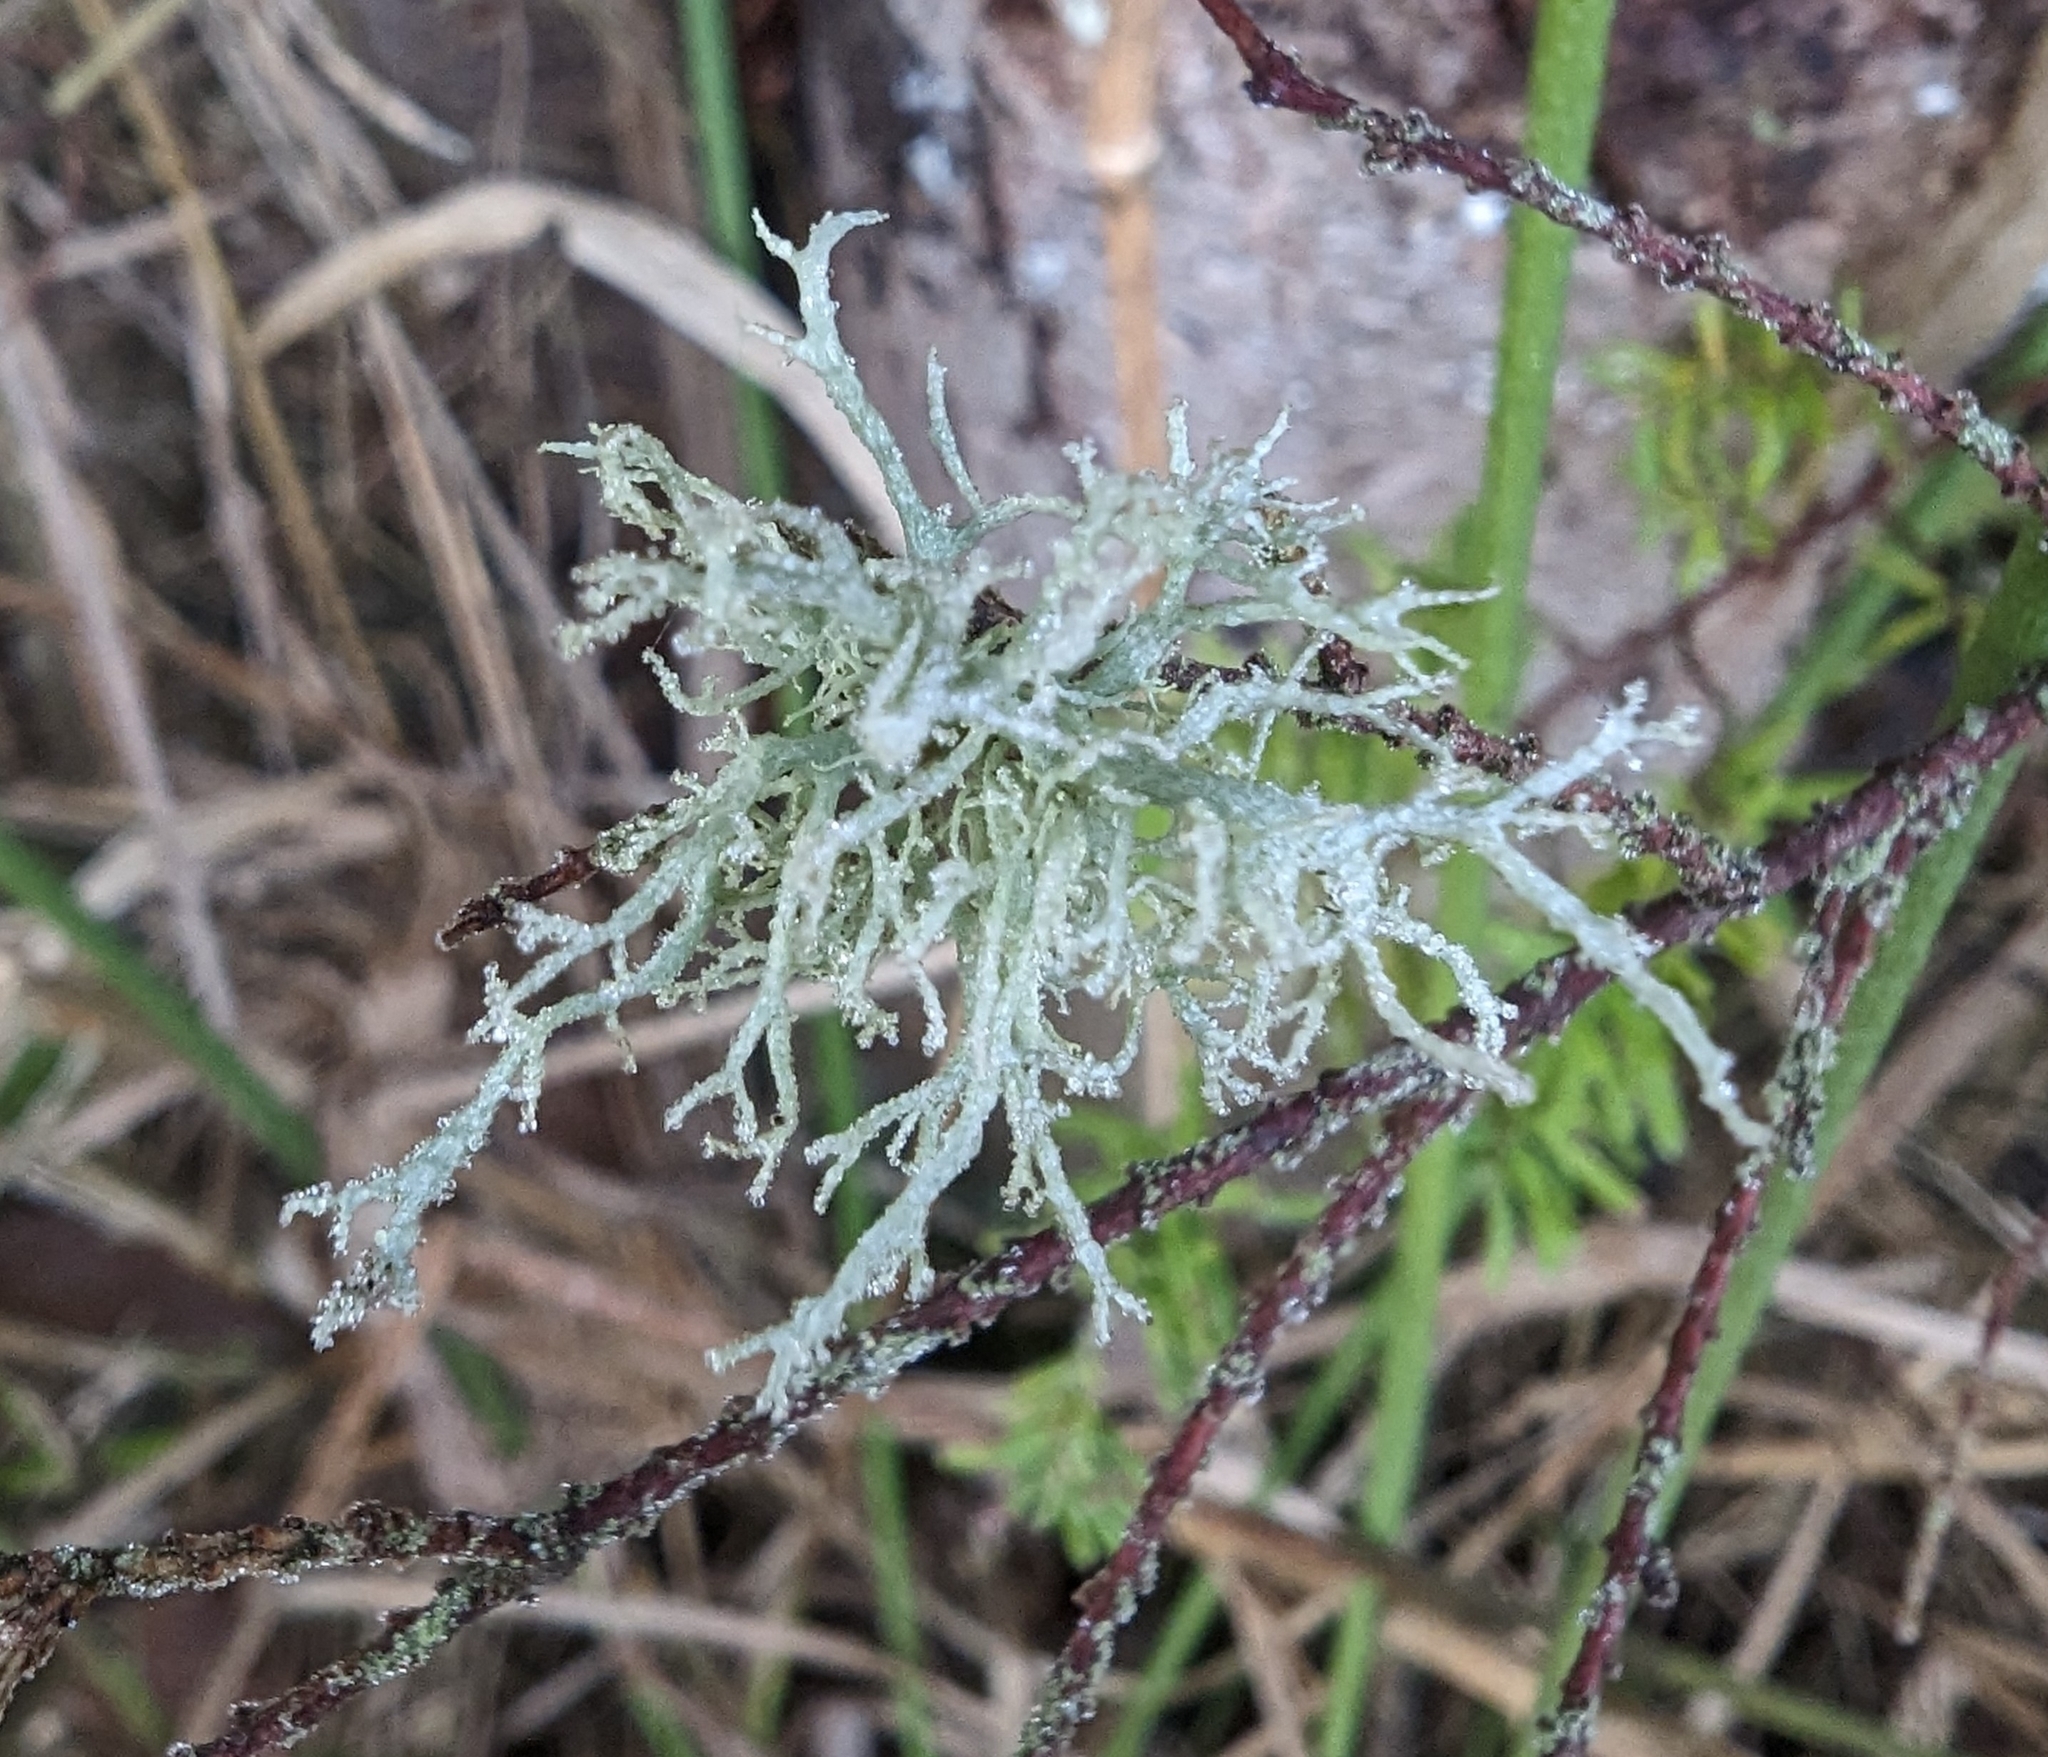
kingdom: Fungi
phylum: Ascomycota
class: Lecanoromycetes
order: Lecanorales
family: Parmeliaceae
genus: Evernia
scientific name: Evernia prunastri
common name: Oak moss
